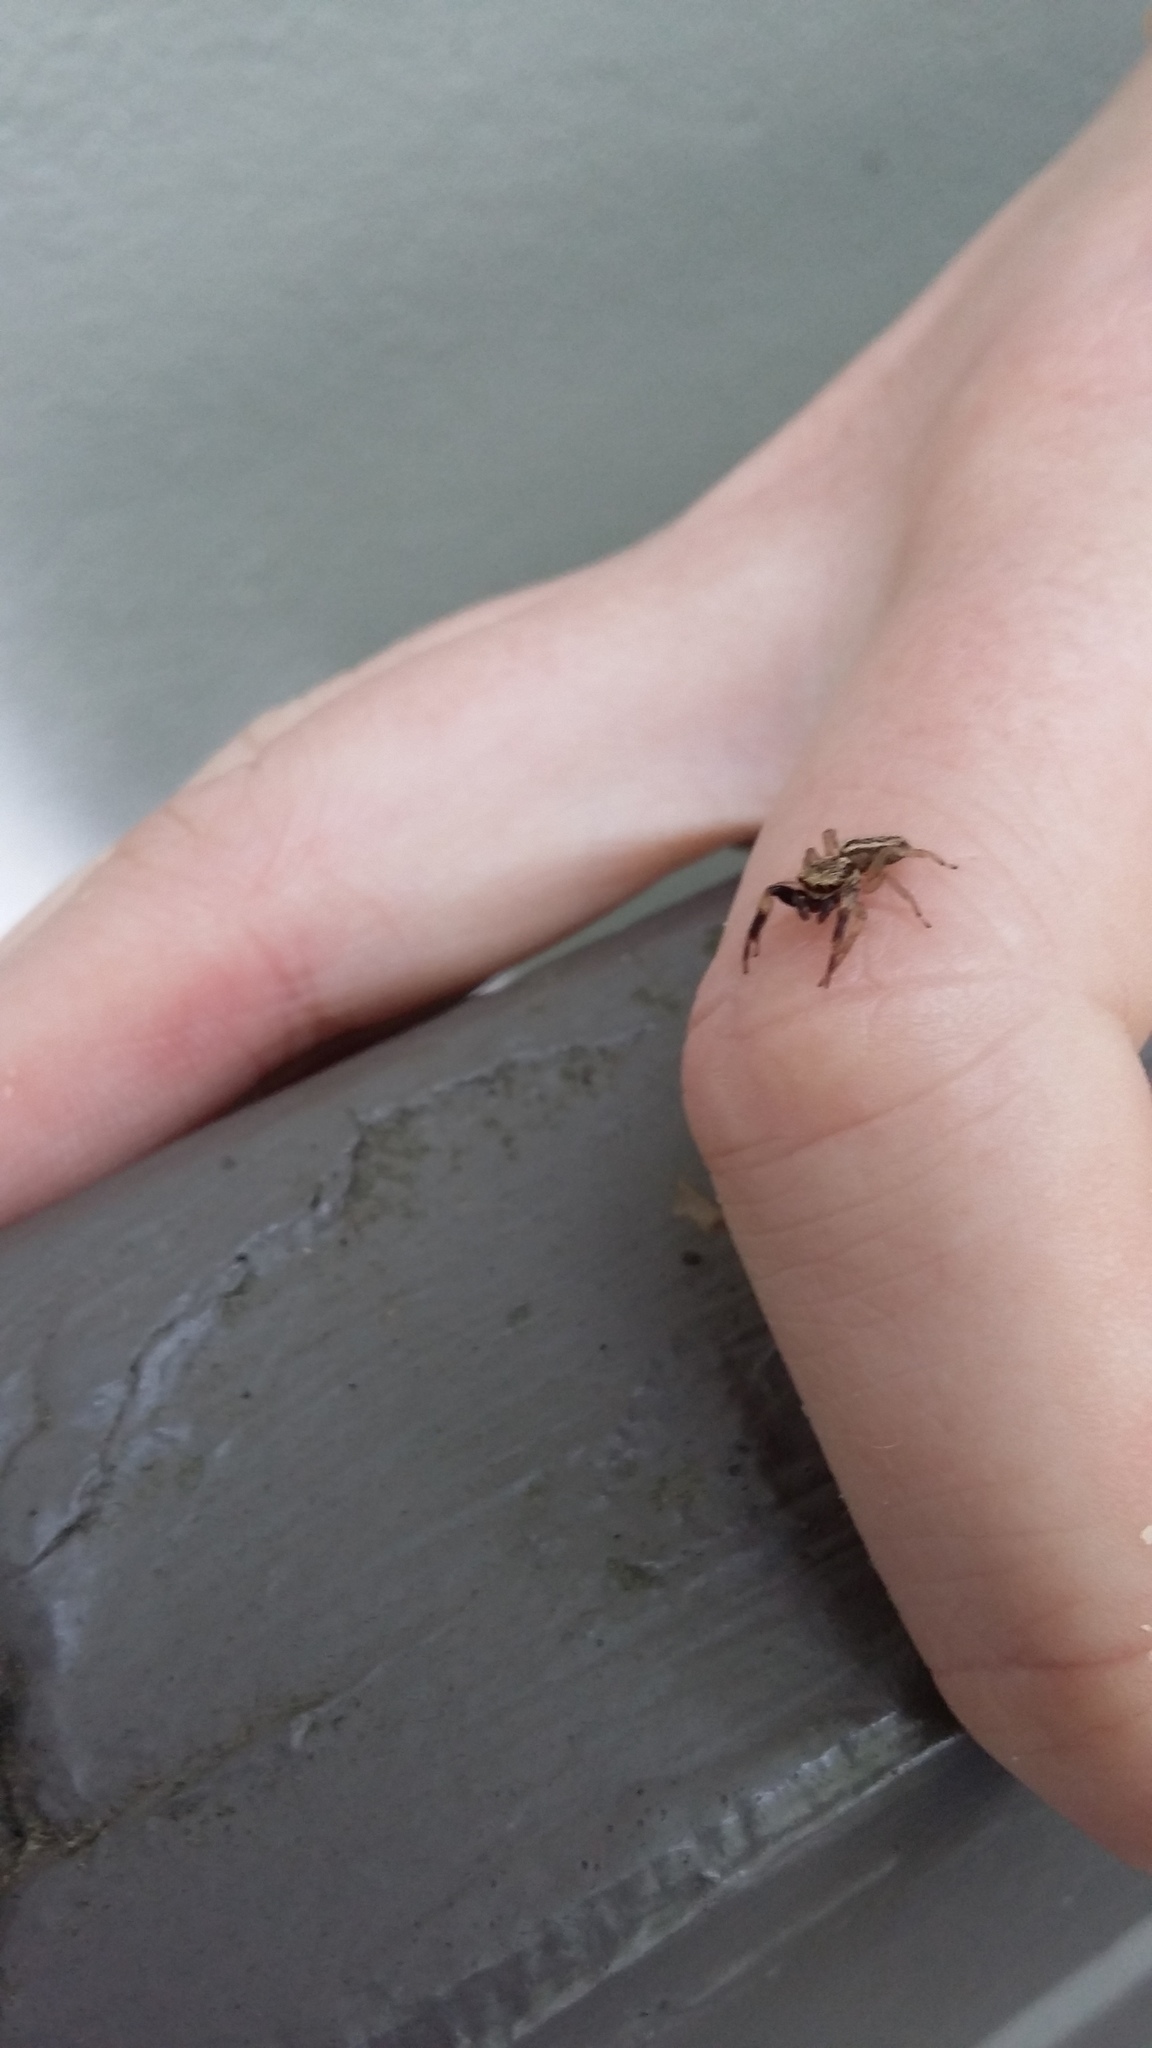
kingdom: Animalia
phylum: Arthropoda
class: Arachnida
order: Araneae
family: Salticidae
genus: Trite
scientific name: Trite auricoma
